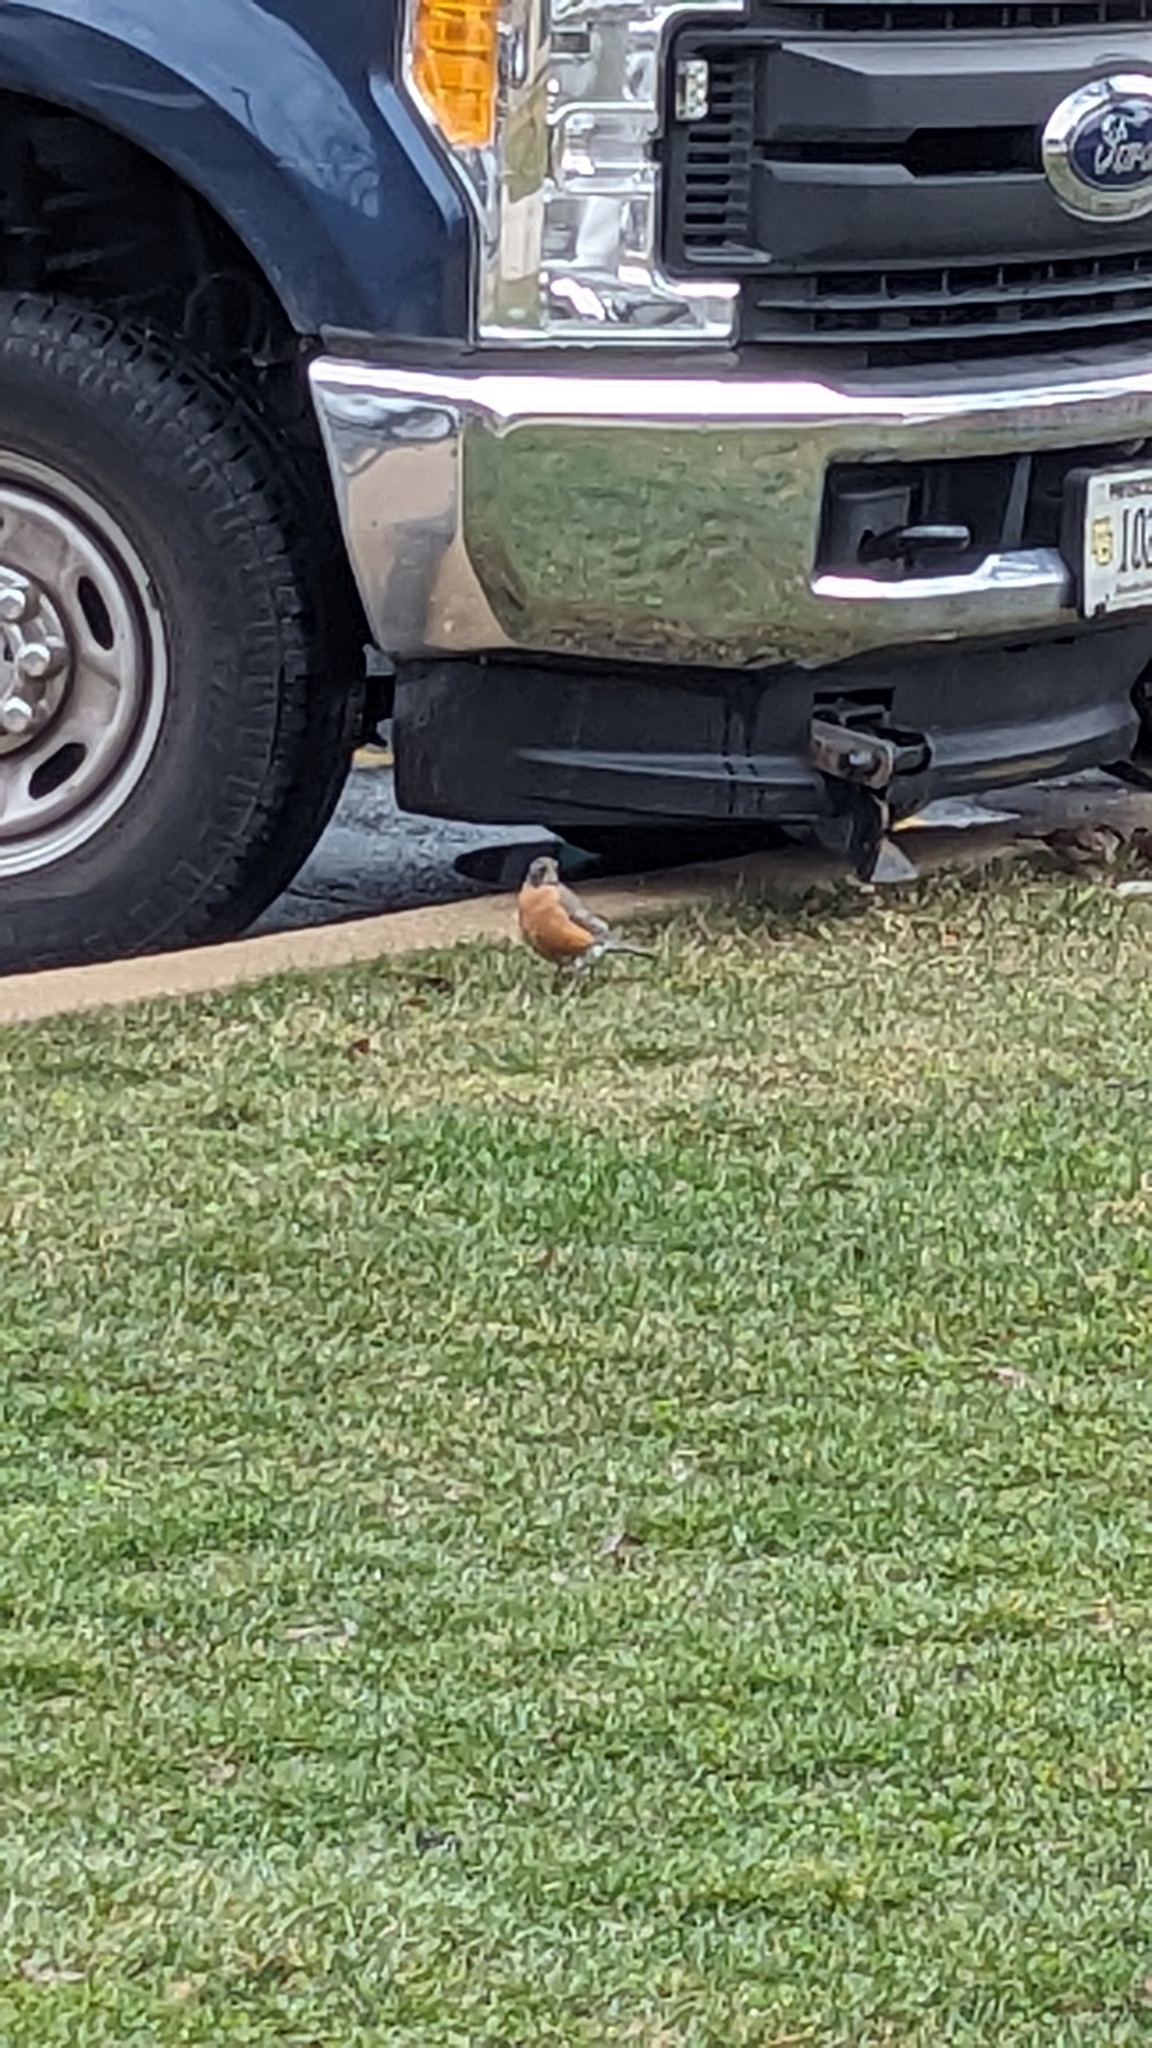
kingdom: Animalia
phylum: Chordata
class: Aves
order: Passeriformes
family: Turdidae
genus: Turdus
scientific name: Turdus migratorius
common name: American robin
